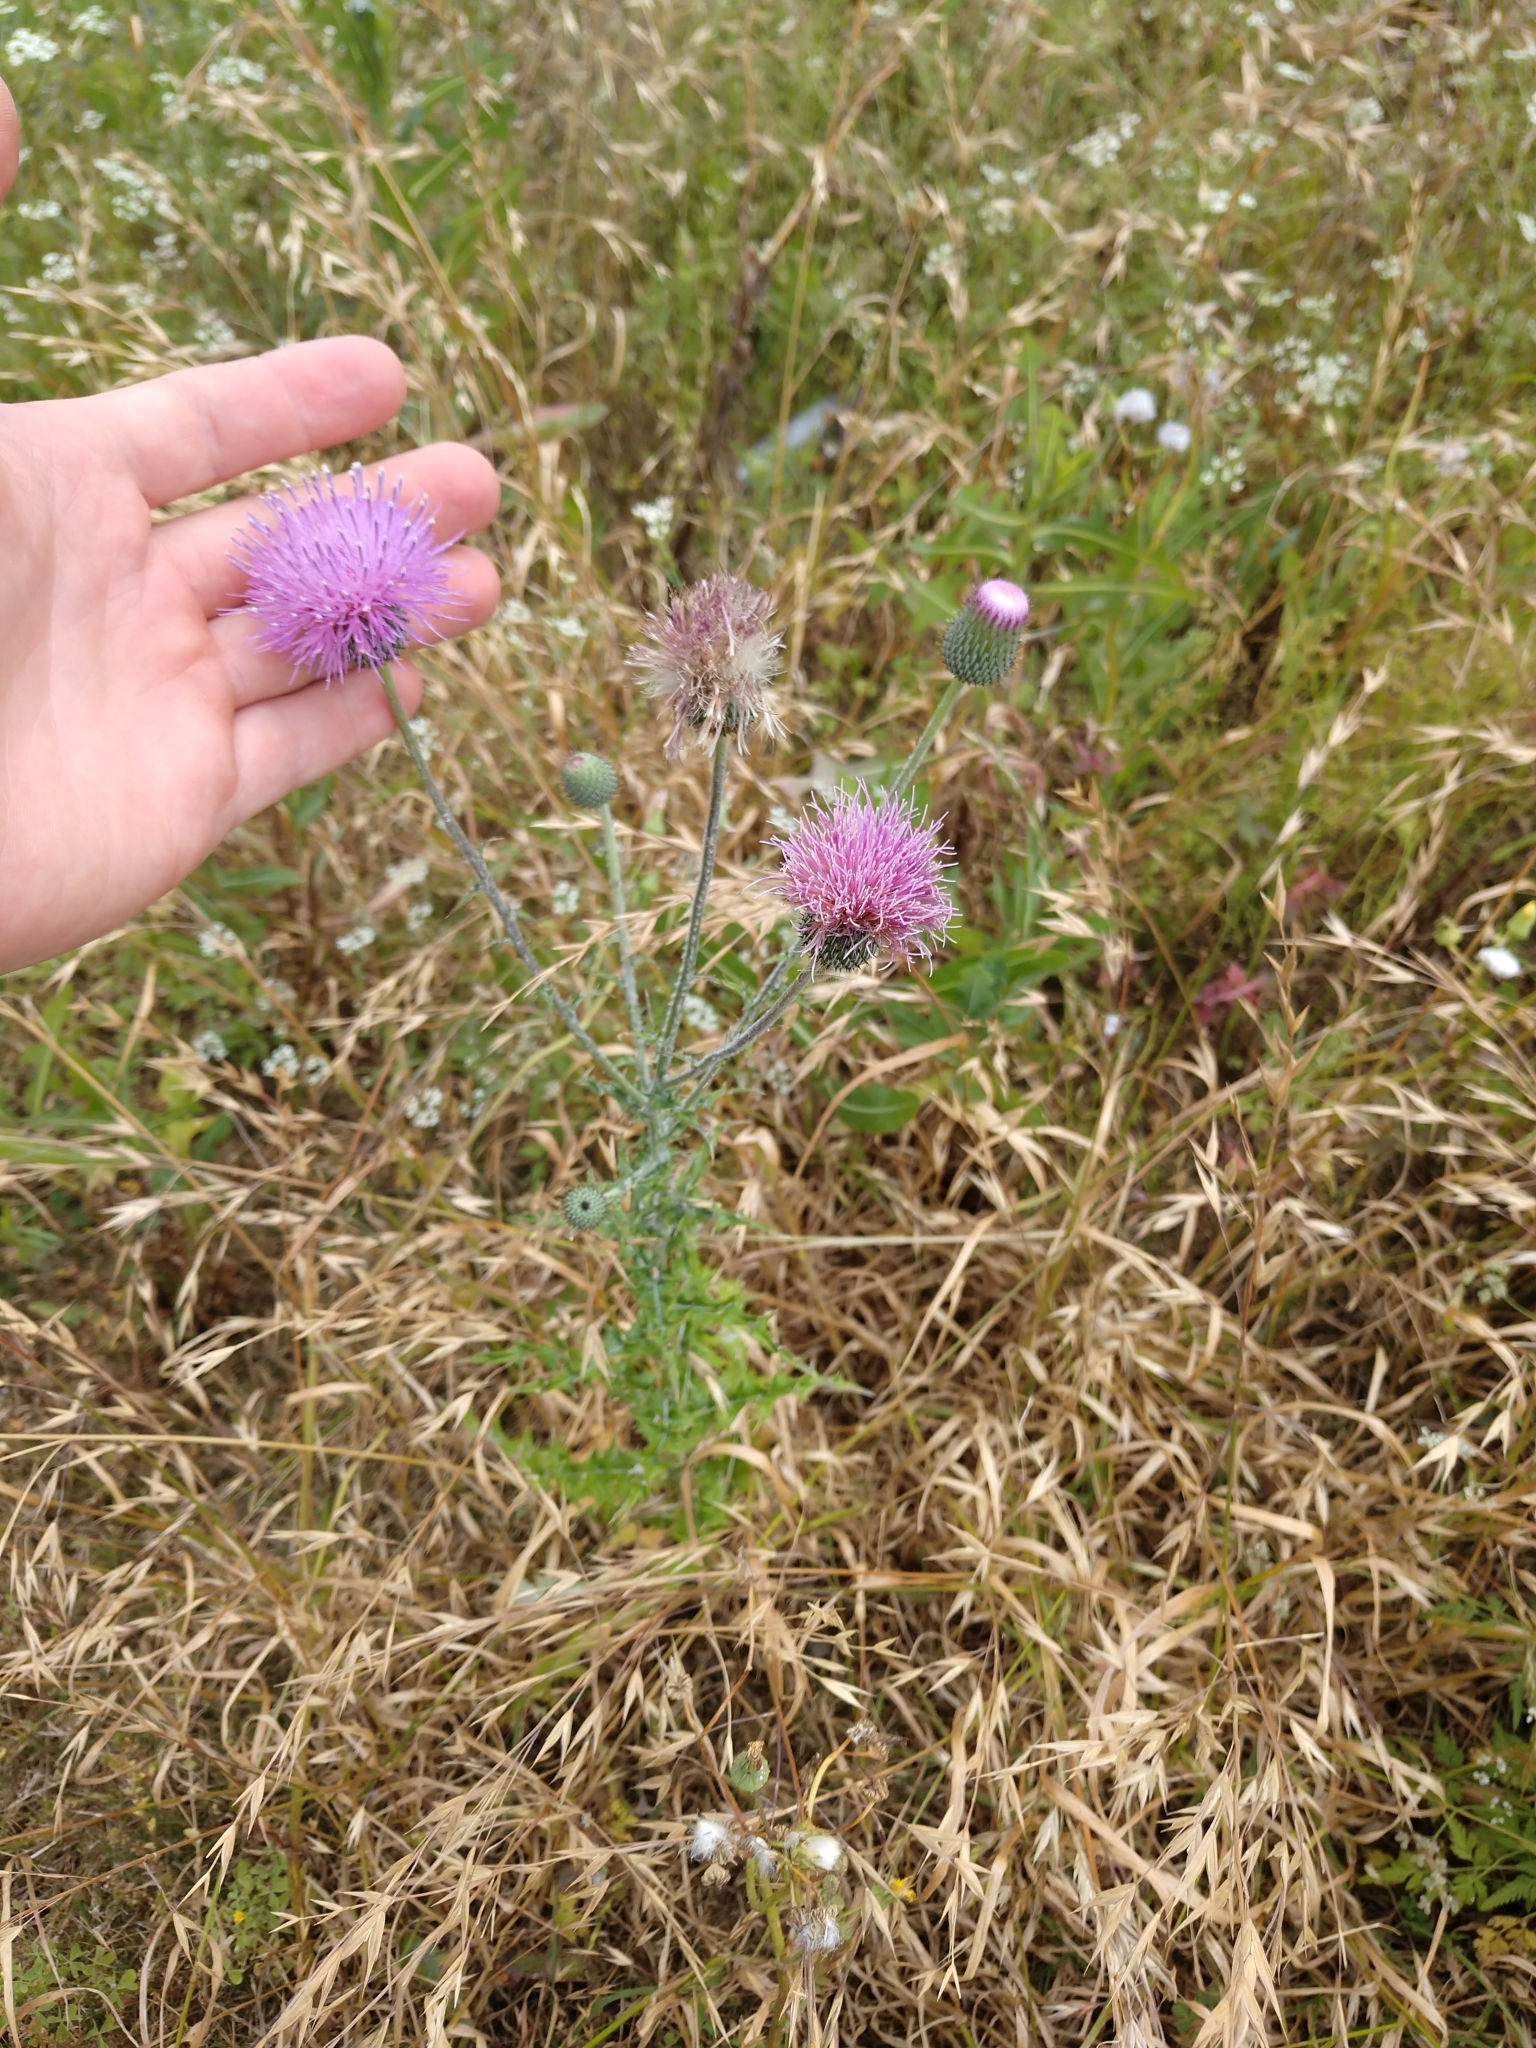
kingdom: Plantae
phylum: Tracheophyta
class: Magnoliopsida
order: Asterales
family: Asteraceae
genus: Cirsium
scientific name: Cirsium texanum
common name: Texas purple thistle
